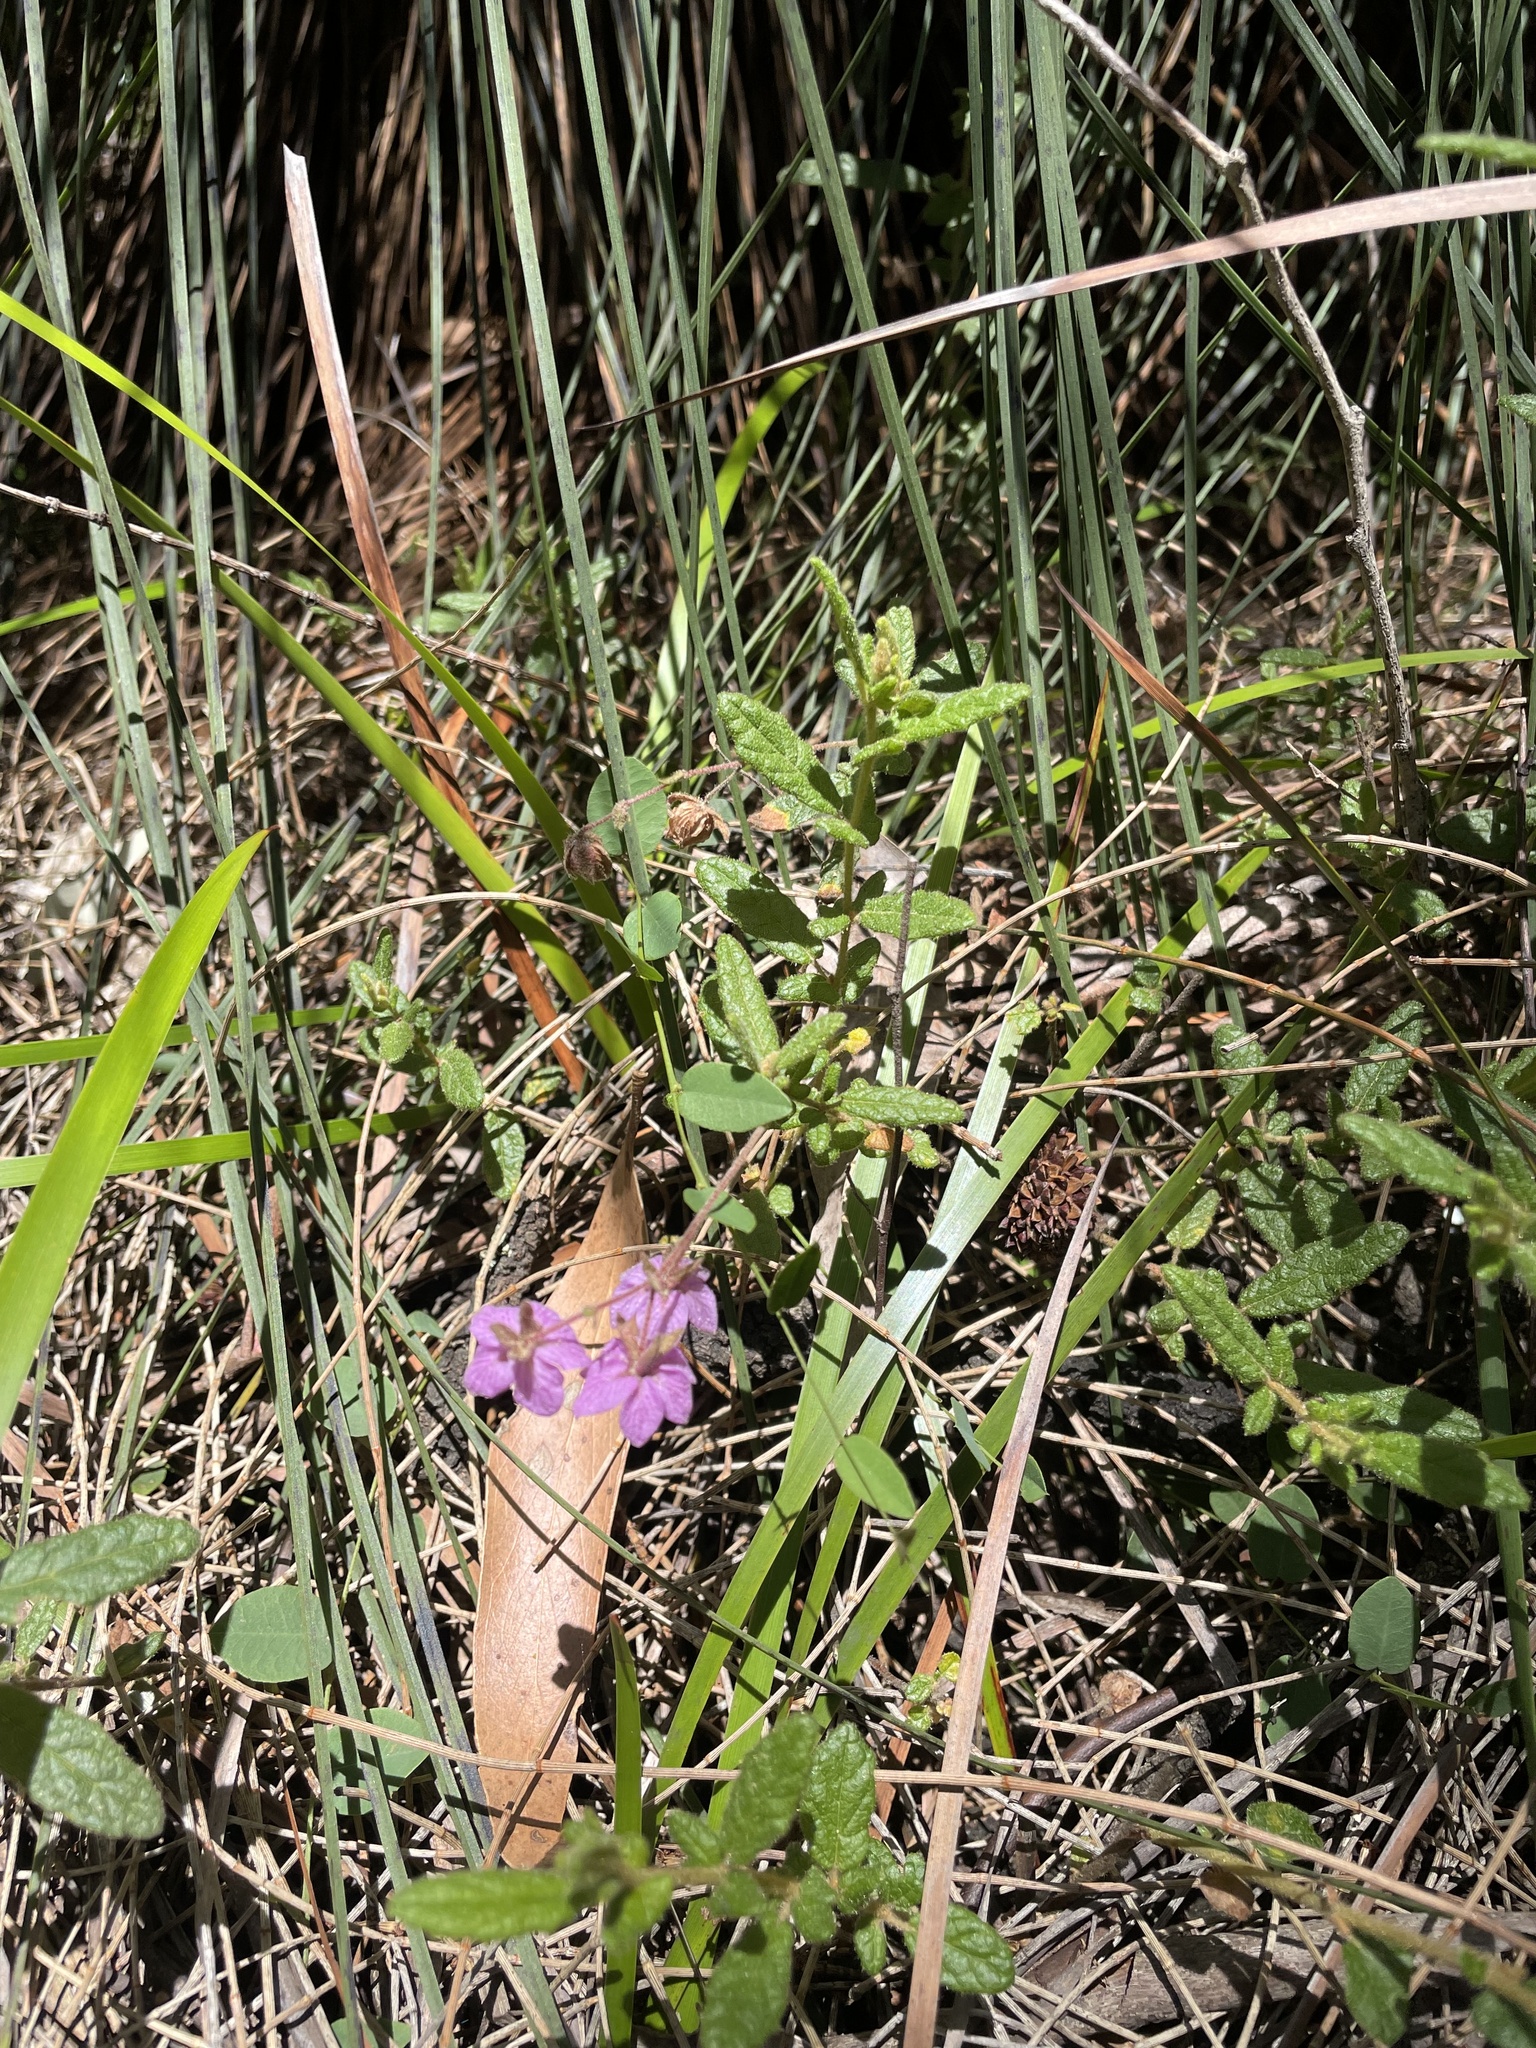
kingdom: Plantae
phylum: Tracheophyta
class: Magnoliopsida
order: Malvales
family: Malvaceae
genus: Thomasia
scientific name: Thomasia petalocalyx
